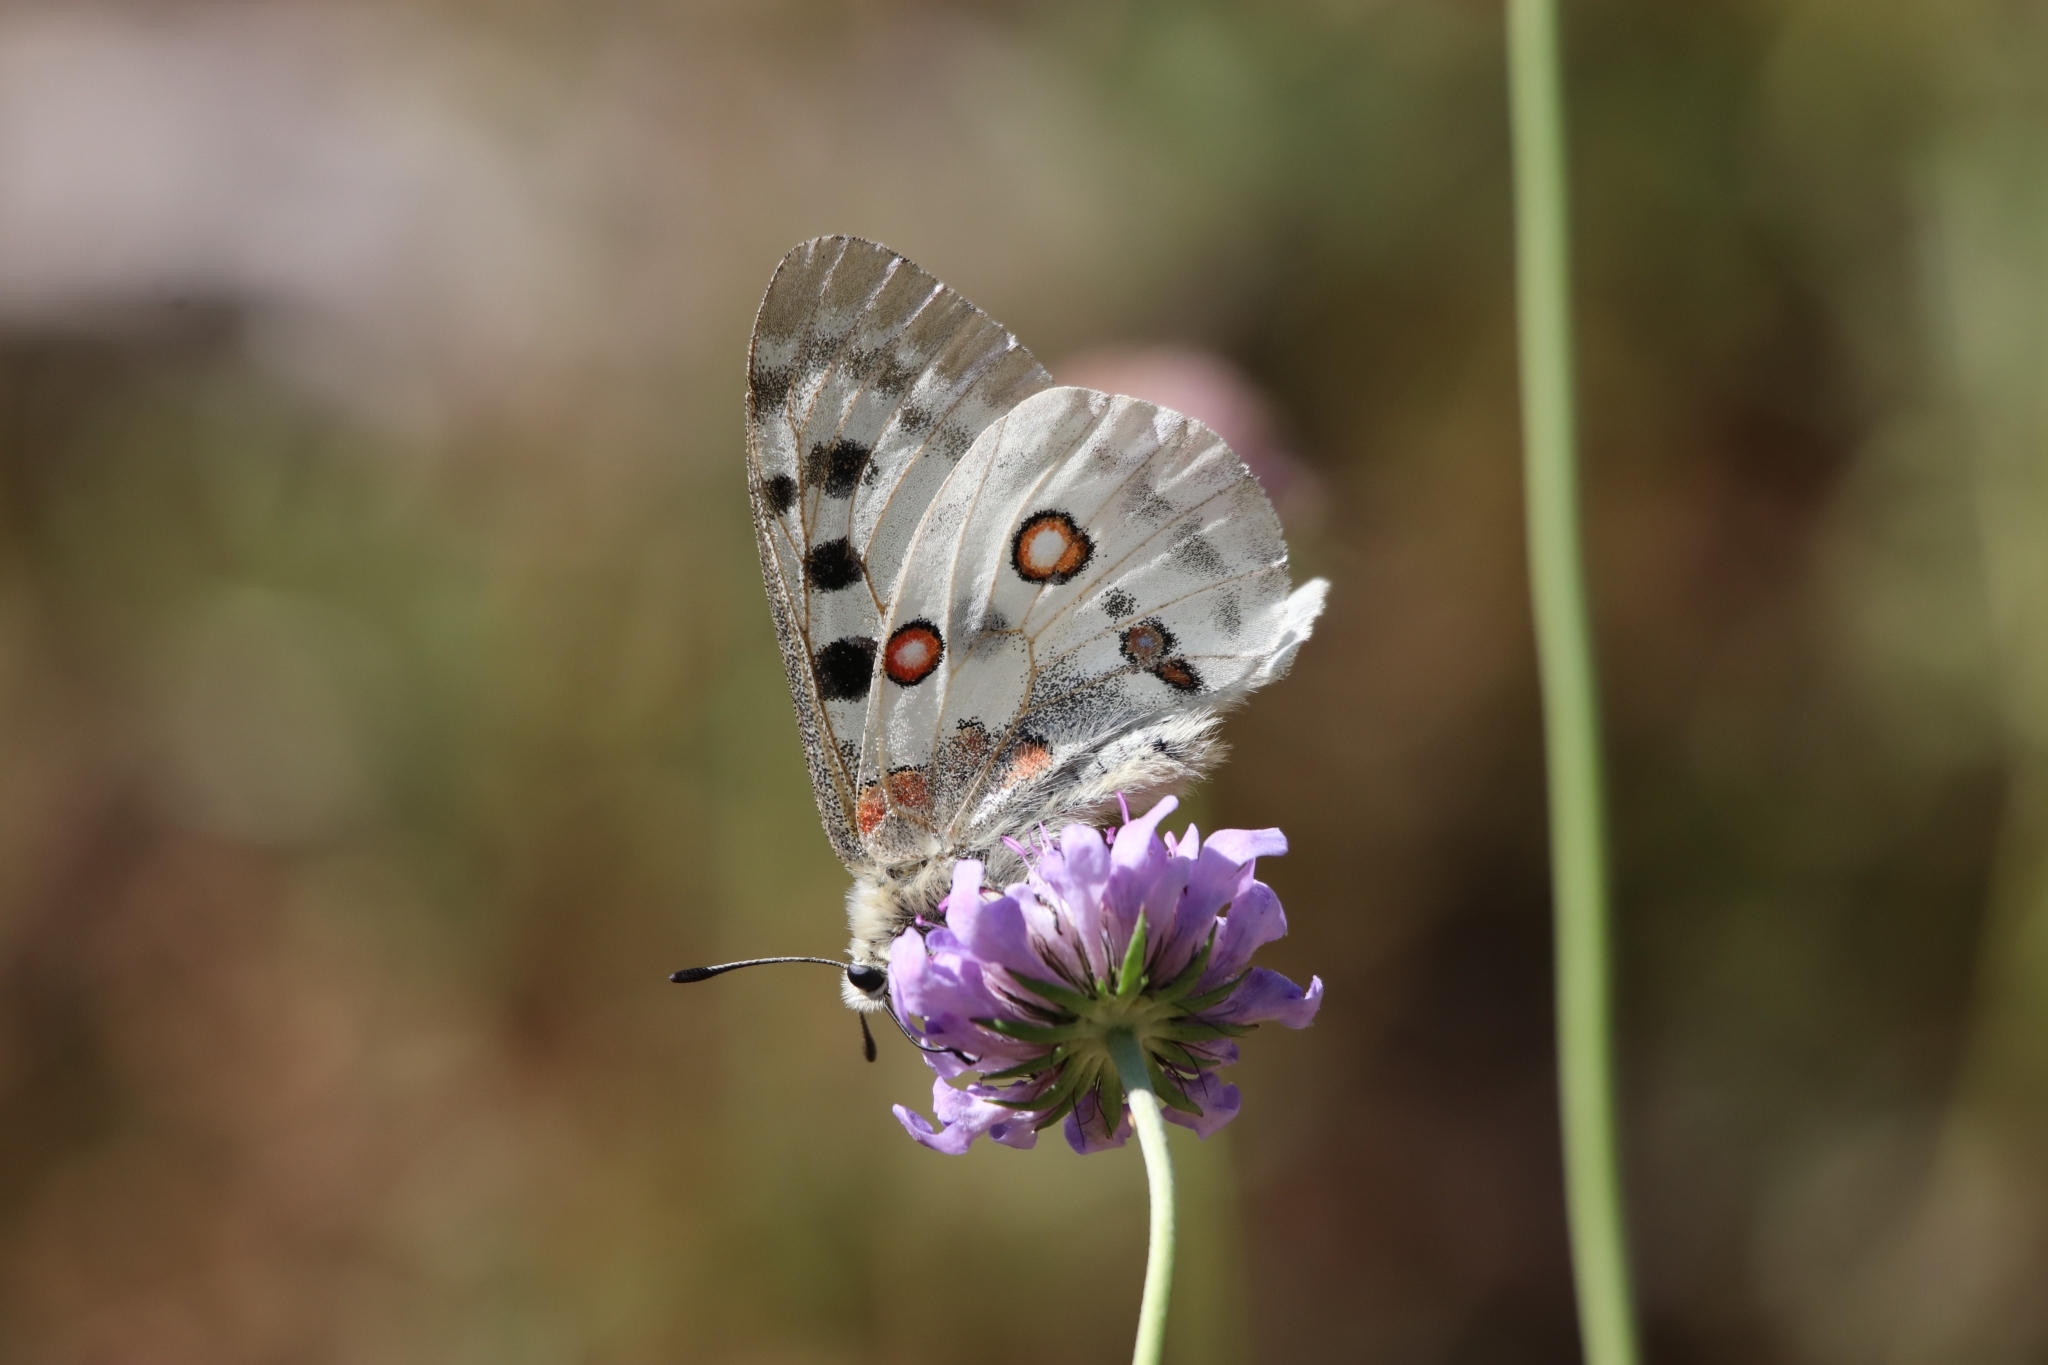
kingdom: Animalia
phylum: Arthropoda
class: Insecta
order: Lepidoptera
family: Papilionidae
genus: Parnassius
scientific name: Parnassius apollo
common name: Apollo
